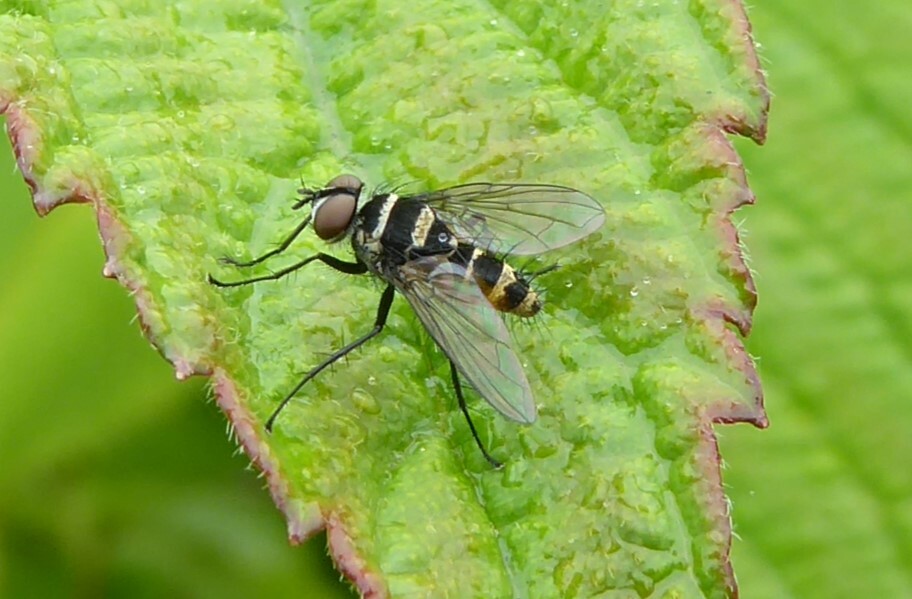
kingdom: Animalia
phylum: Arthropoda
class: Insecta
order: Diptera
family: Tachinidae
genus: Trigonospila
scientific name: Trigonospila brevifacies
